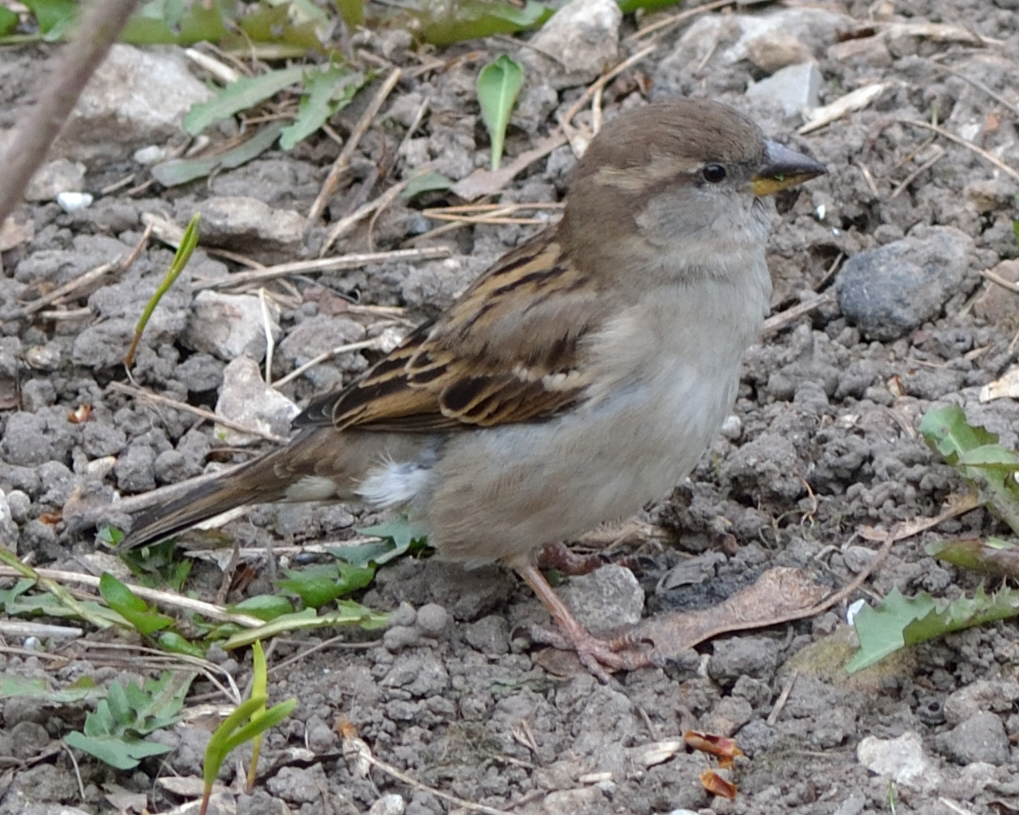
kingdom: Animalia
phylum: Chordata
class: Aves
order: Passeriformes
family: Passeridae
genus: Passer
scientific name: Passer domesticus
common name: House sparrow
